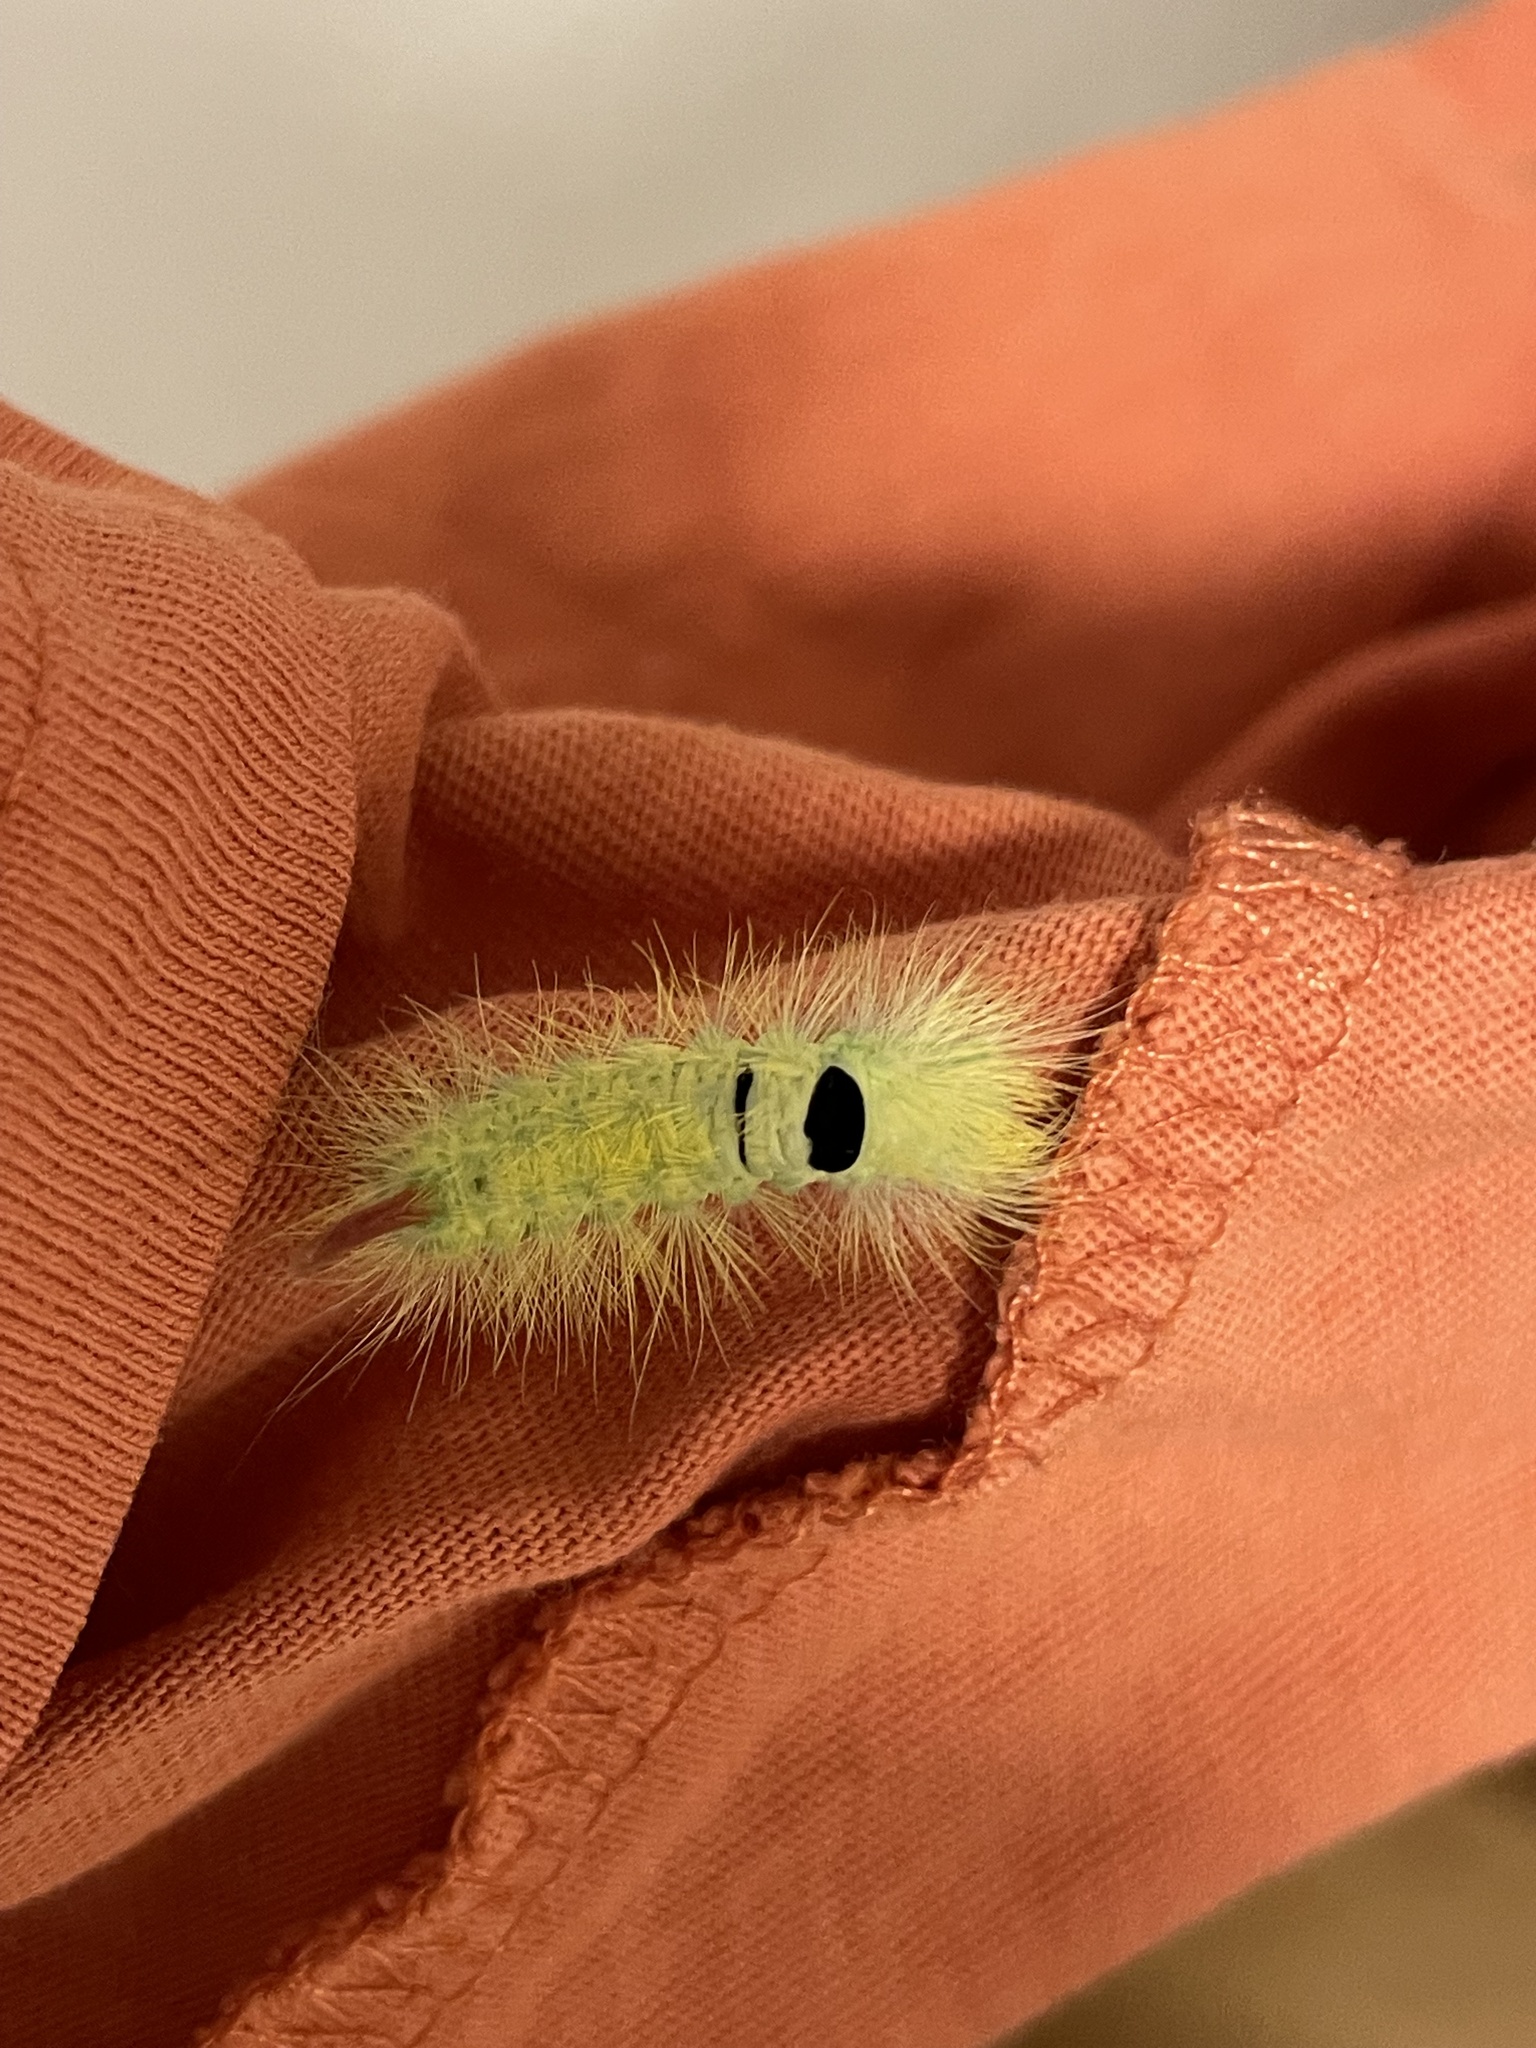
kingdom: Animalia
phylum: Arthropoda
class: Insecta
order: Lepidoptera
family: Erebidae
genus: Calliteara
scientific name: Calliteara pudibunda
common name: Pale tussock
